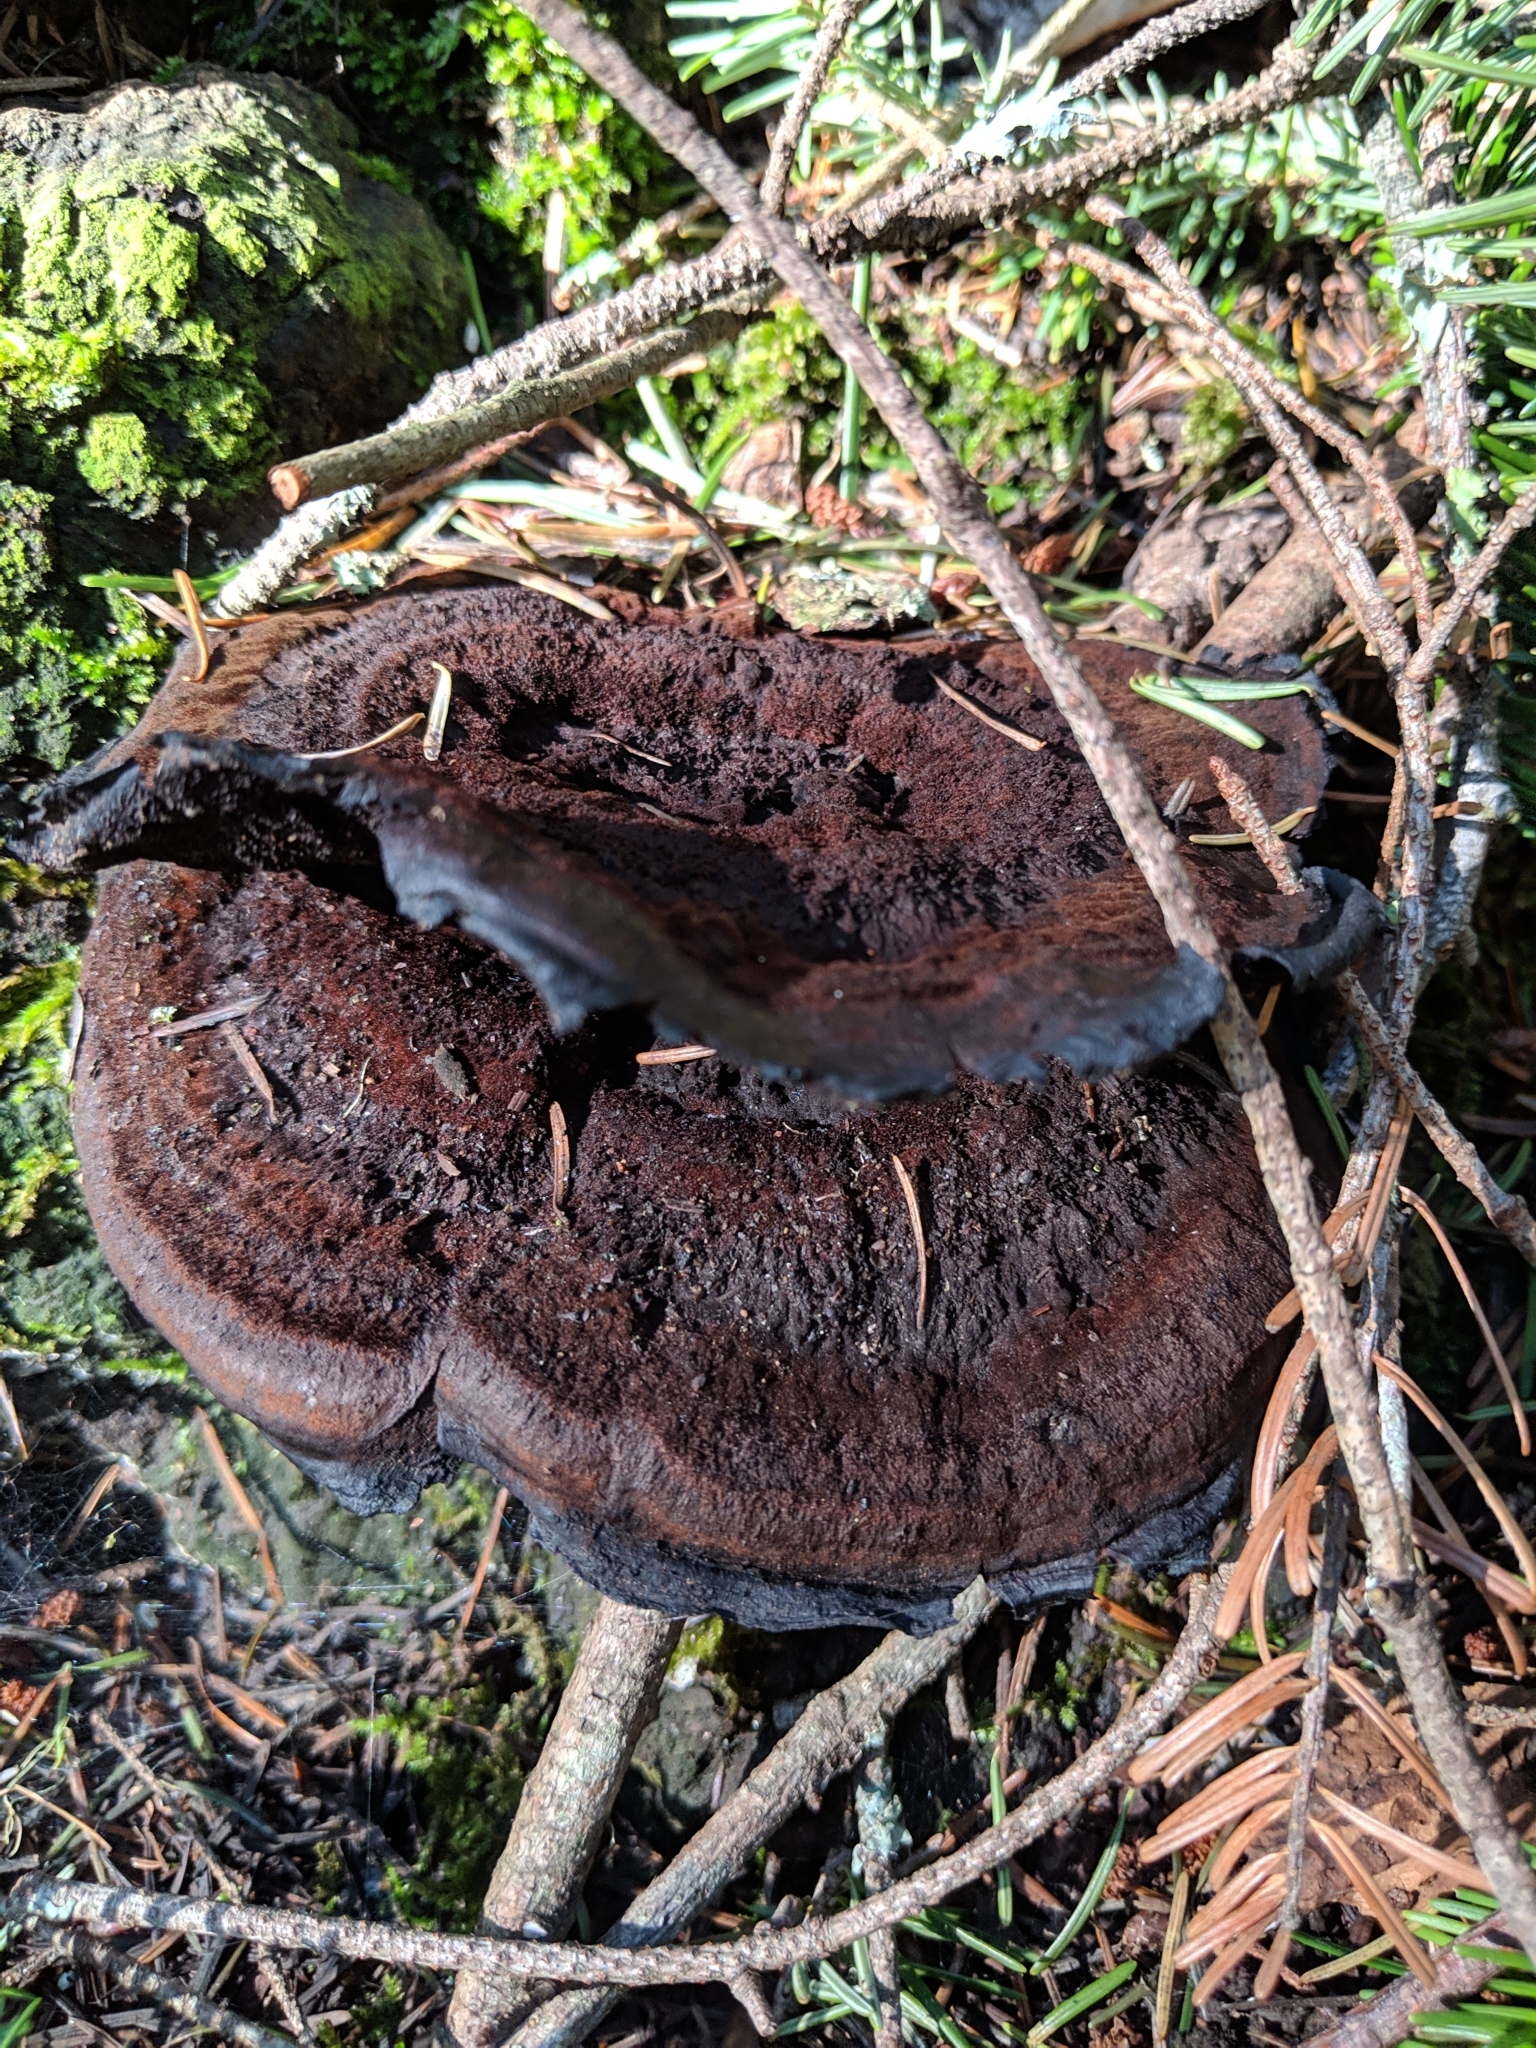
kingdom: Fungi
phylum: Basidiomycota
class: Agaricomycetes
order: Polyporales
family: Laetiporaceae
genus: Phaeolus
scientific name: Phaeolus schweinitzii
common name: Dyer's mazegill
